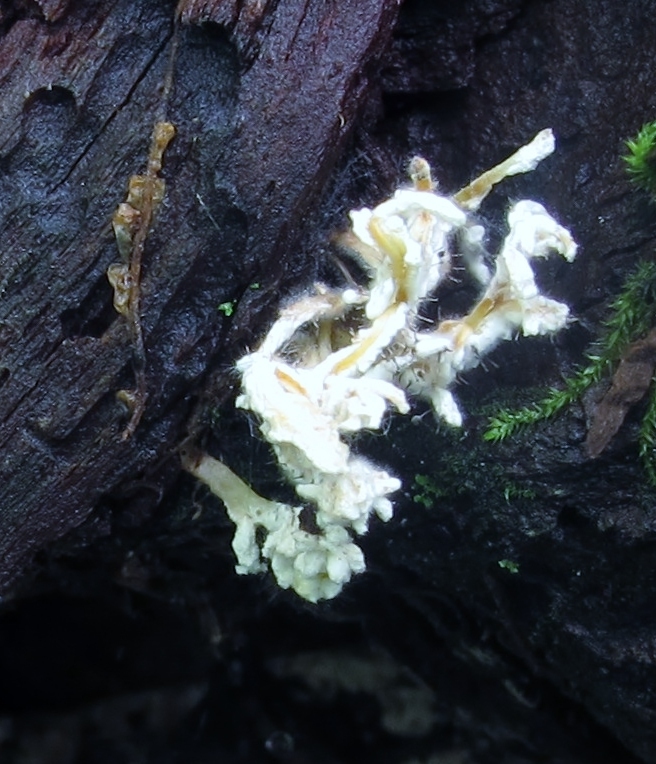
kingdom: Fungi
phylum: Ascomycota
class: Sordariomycetes
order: Hypocreales
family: Hypocreaceae
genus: Syspastospora
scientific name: Syspastospora parasitica
